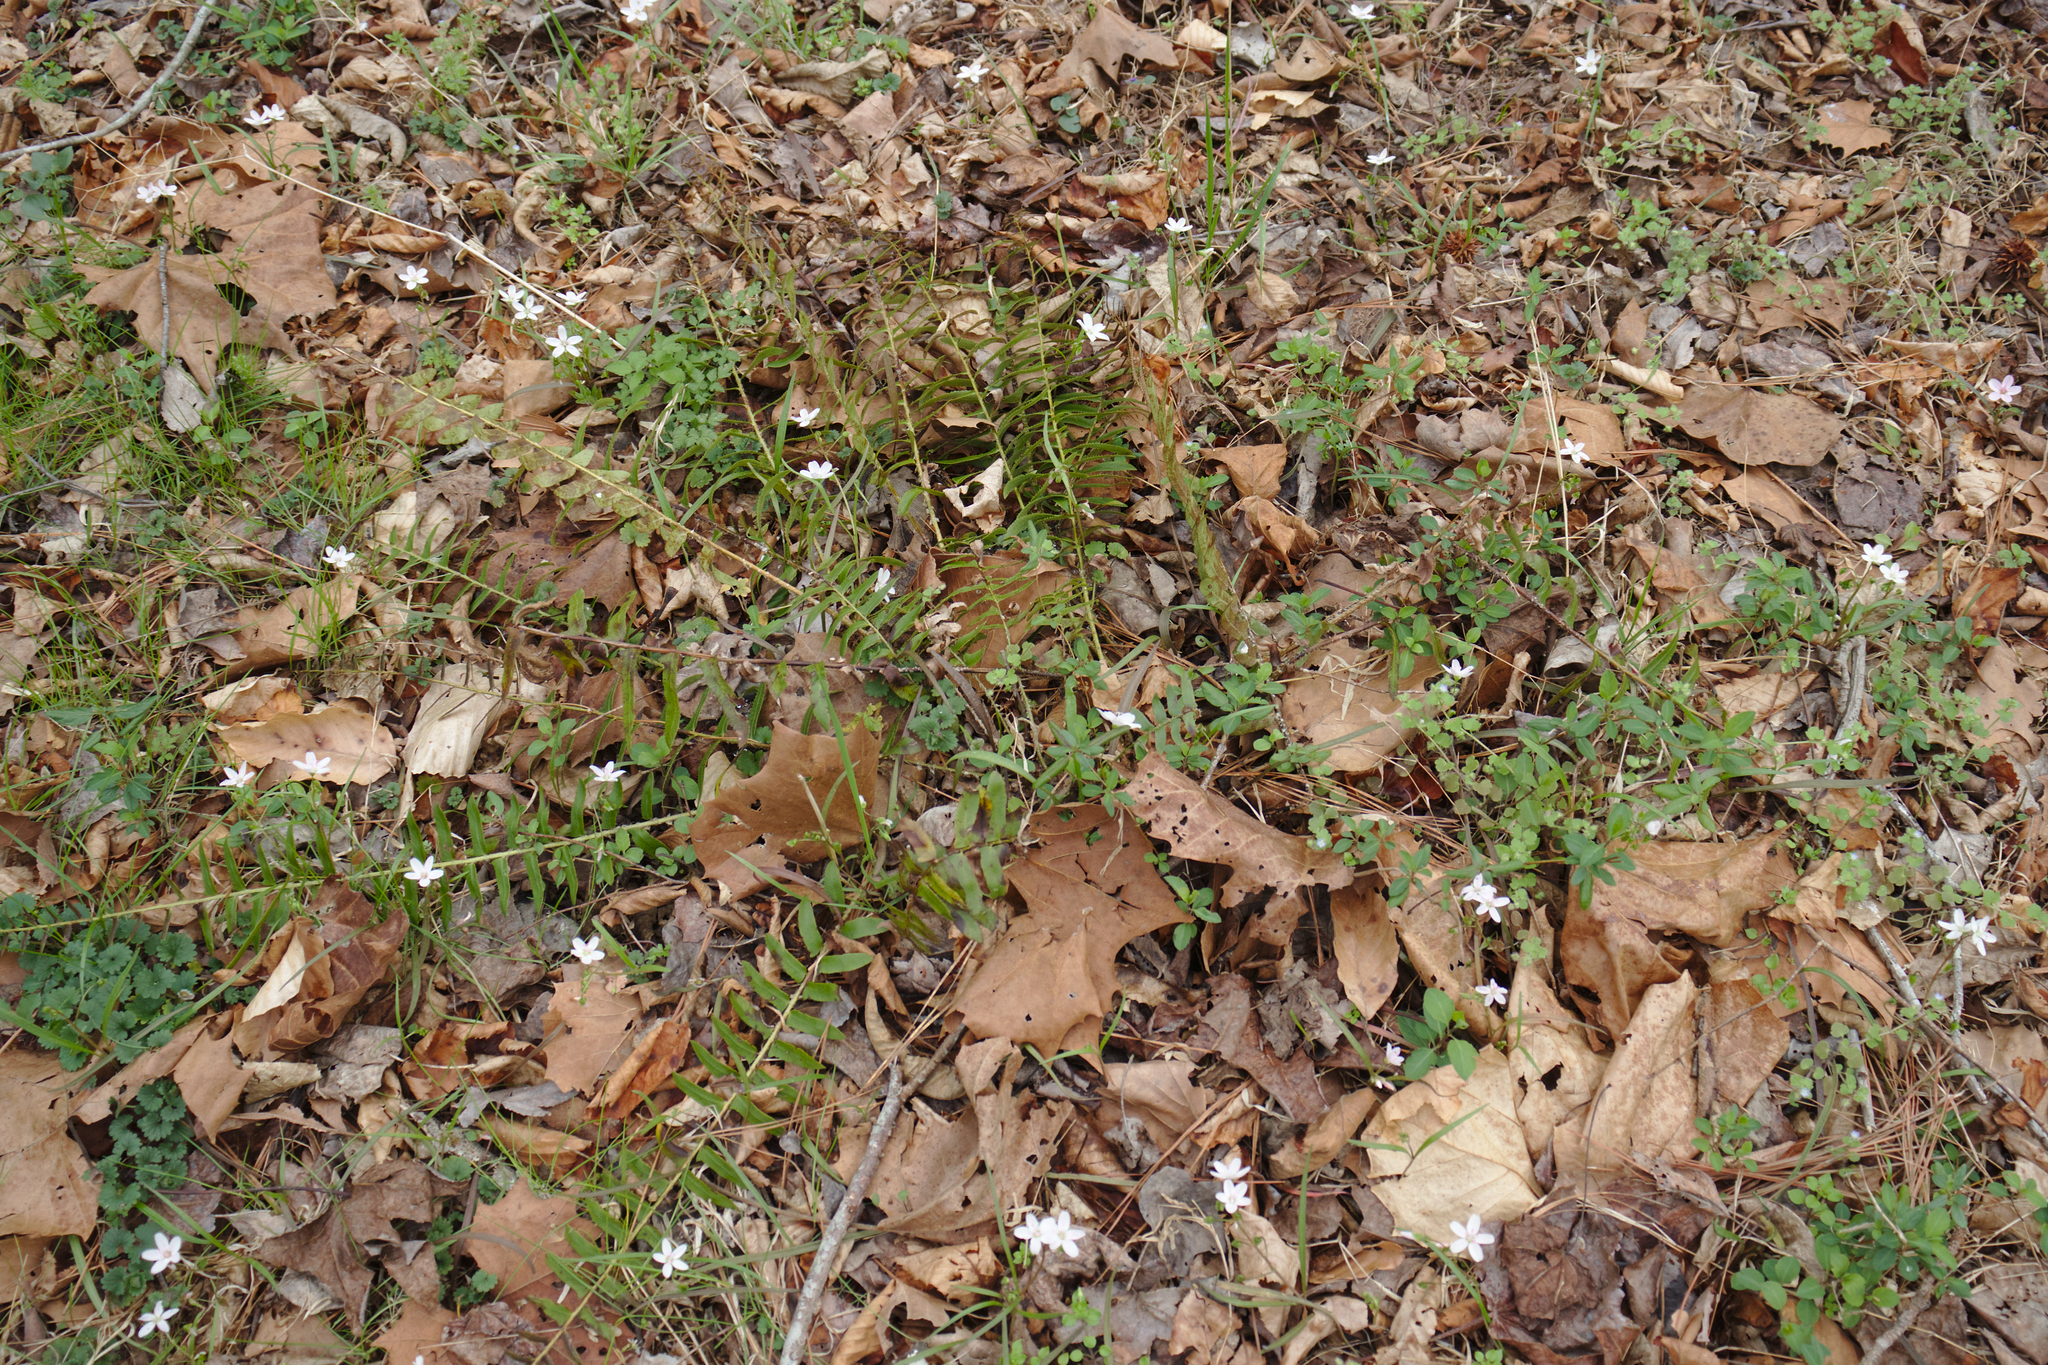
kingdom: Plantae
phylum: Tracheophyta
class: Polypodiopsida
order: Polypodiales
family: Dryopteridaceae
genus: Polystichum
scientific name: Polystichum acrostichoides
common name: Christmas fern
